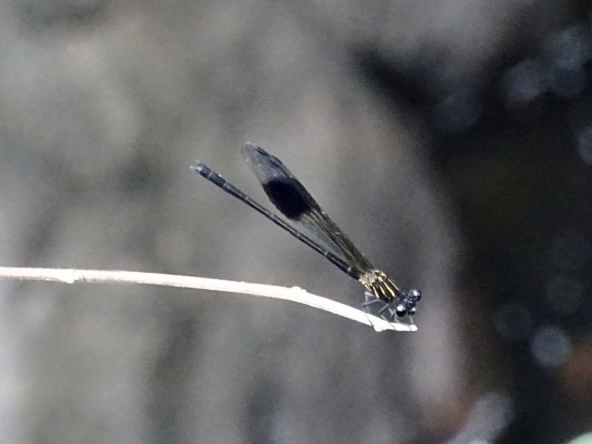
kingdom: Animalia
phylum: Arthropoda
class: Insecta
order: Odonata
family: Euphaeidae
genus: Euphaea
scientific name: Euphaea decorata
